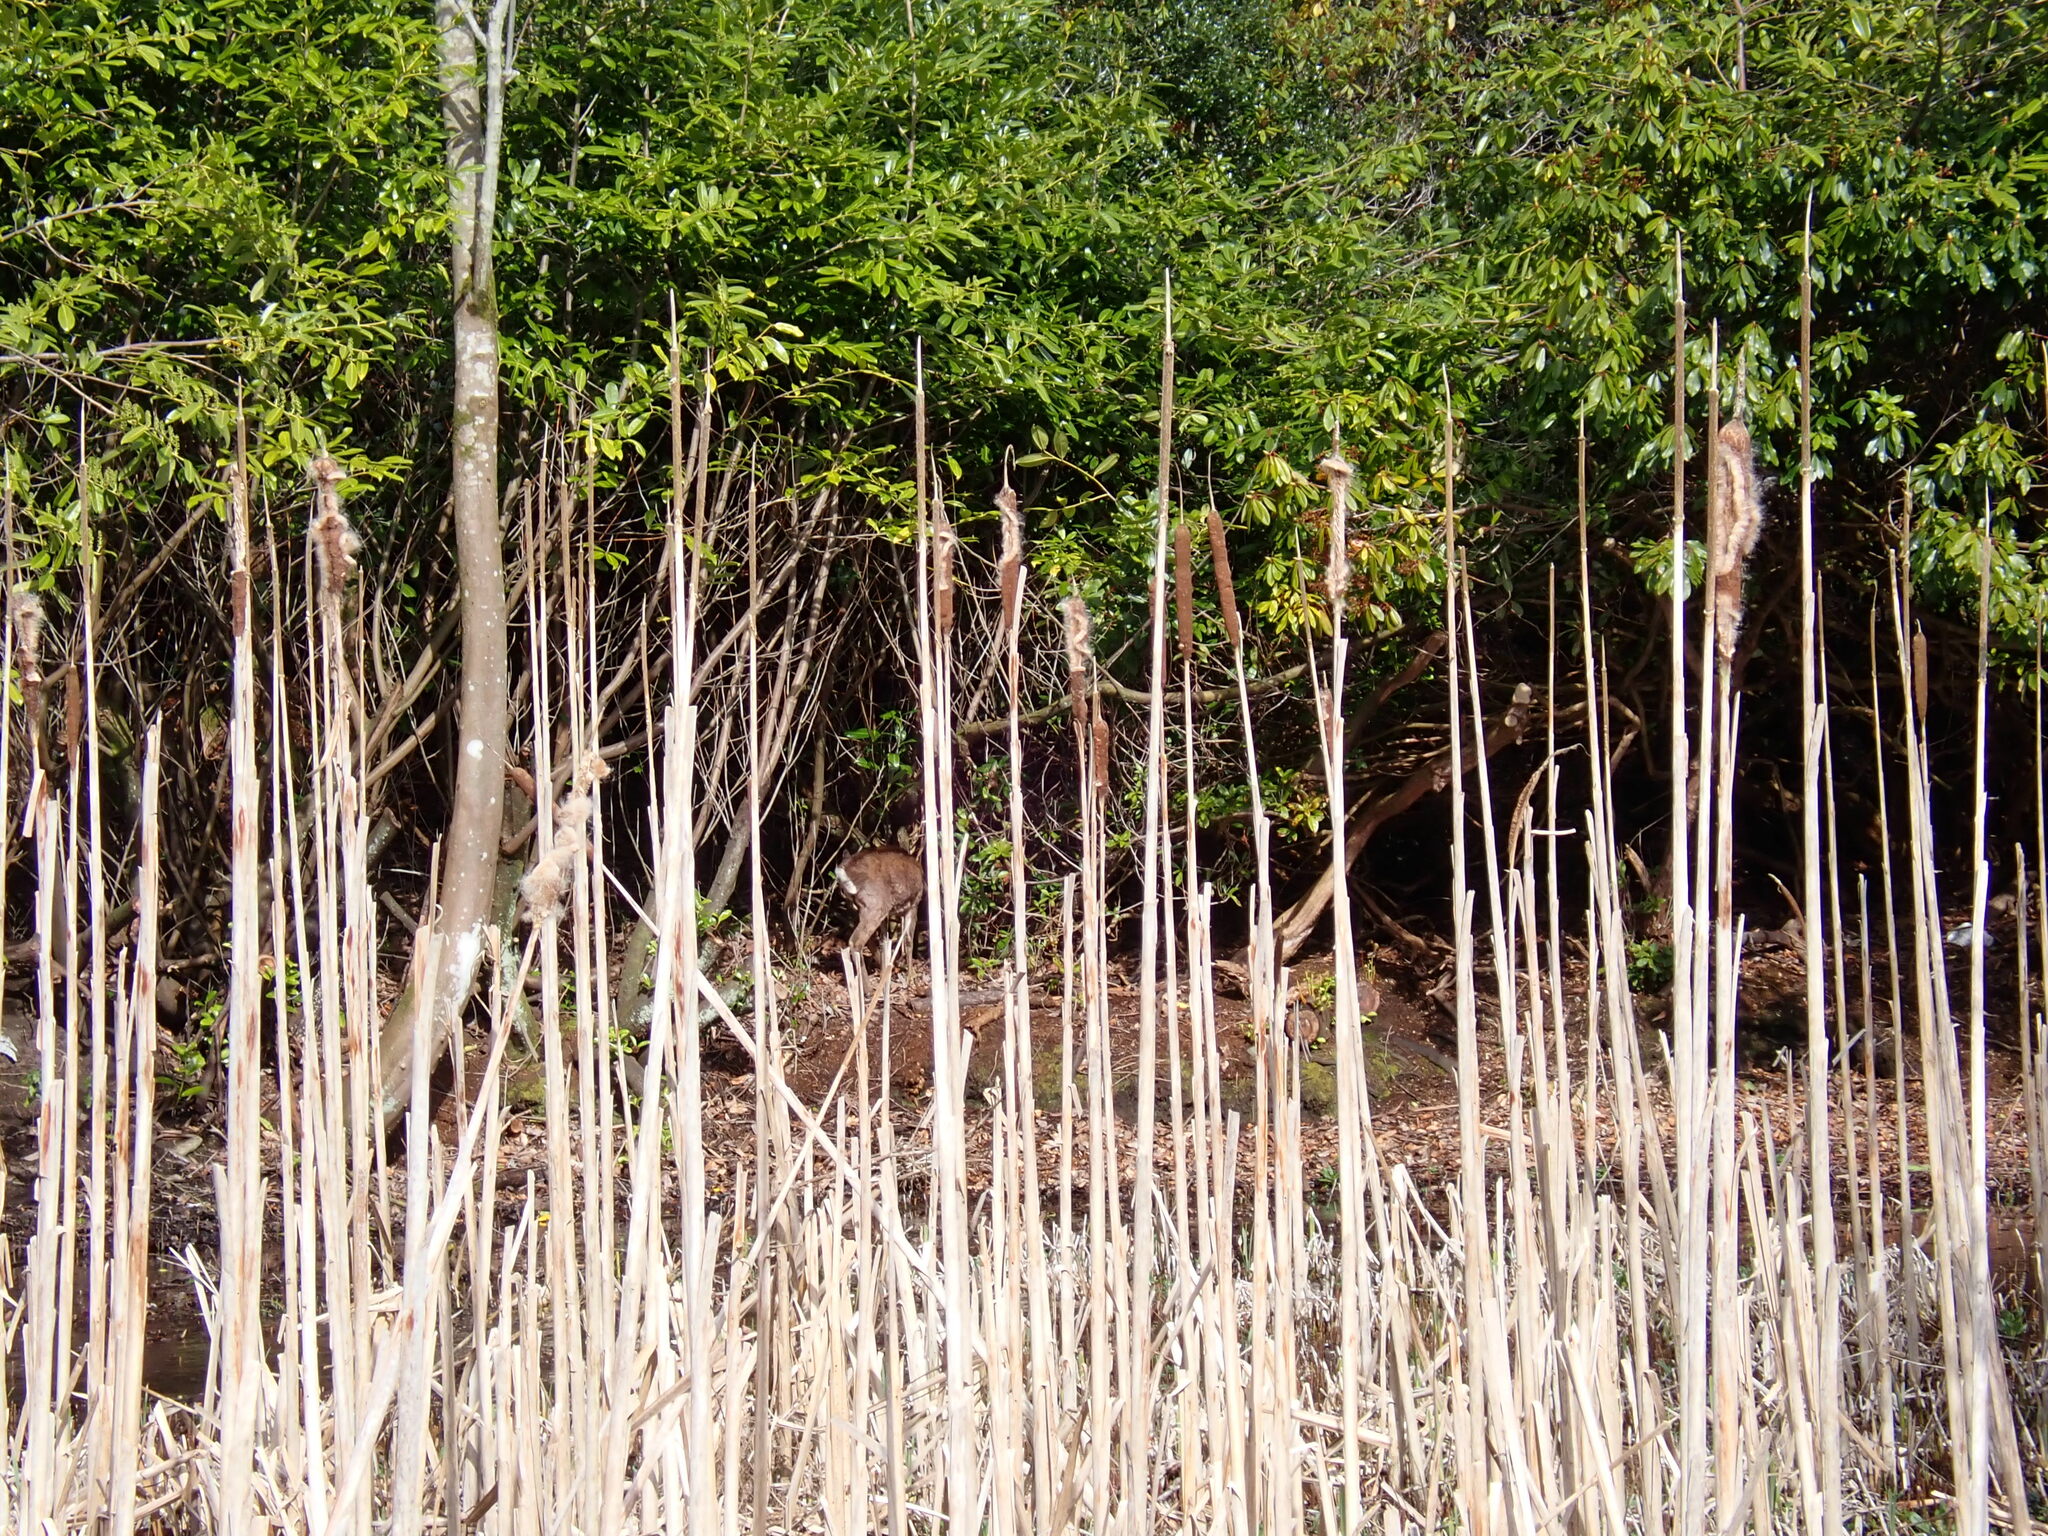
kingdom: Animalia
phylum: Chordata
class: Mammalia
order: Artiodactyla
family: Cervidae
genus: Capreolus
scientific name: Capreolus capreolus
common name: Western roe deer
